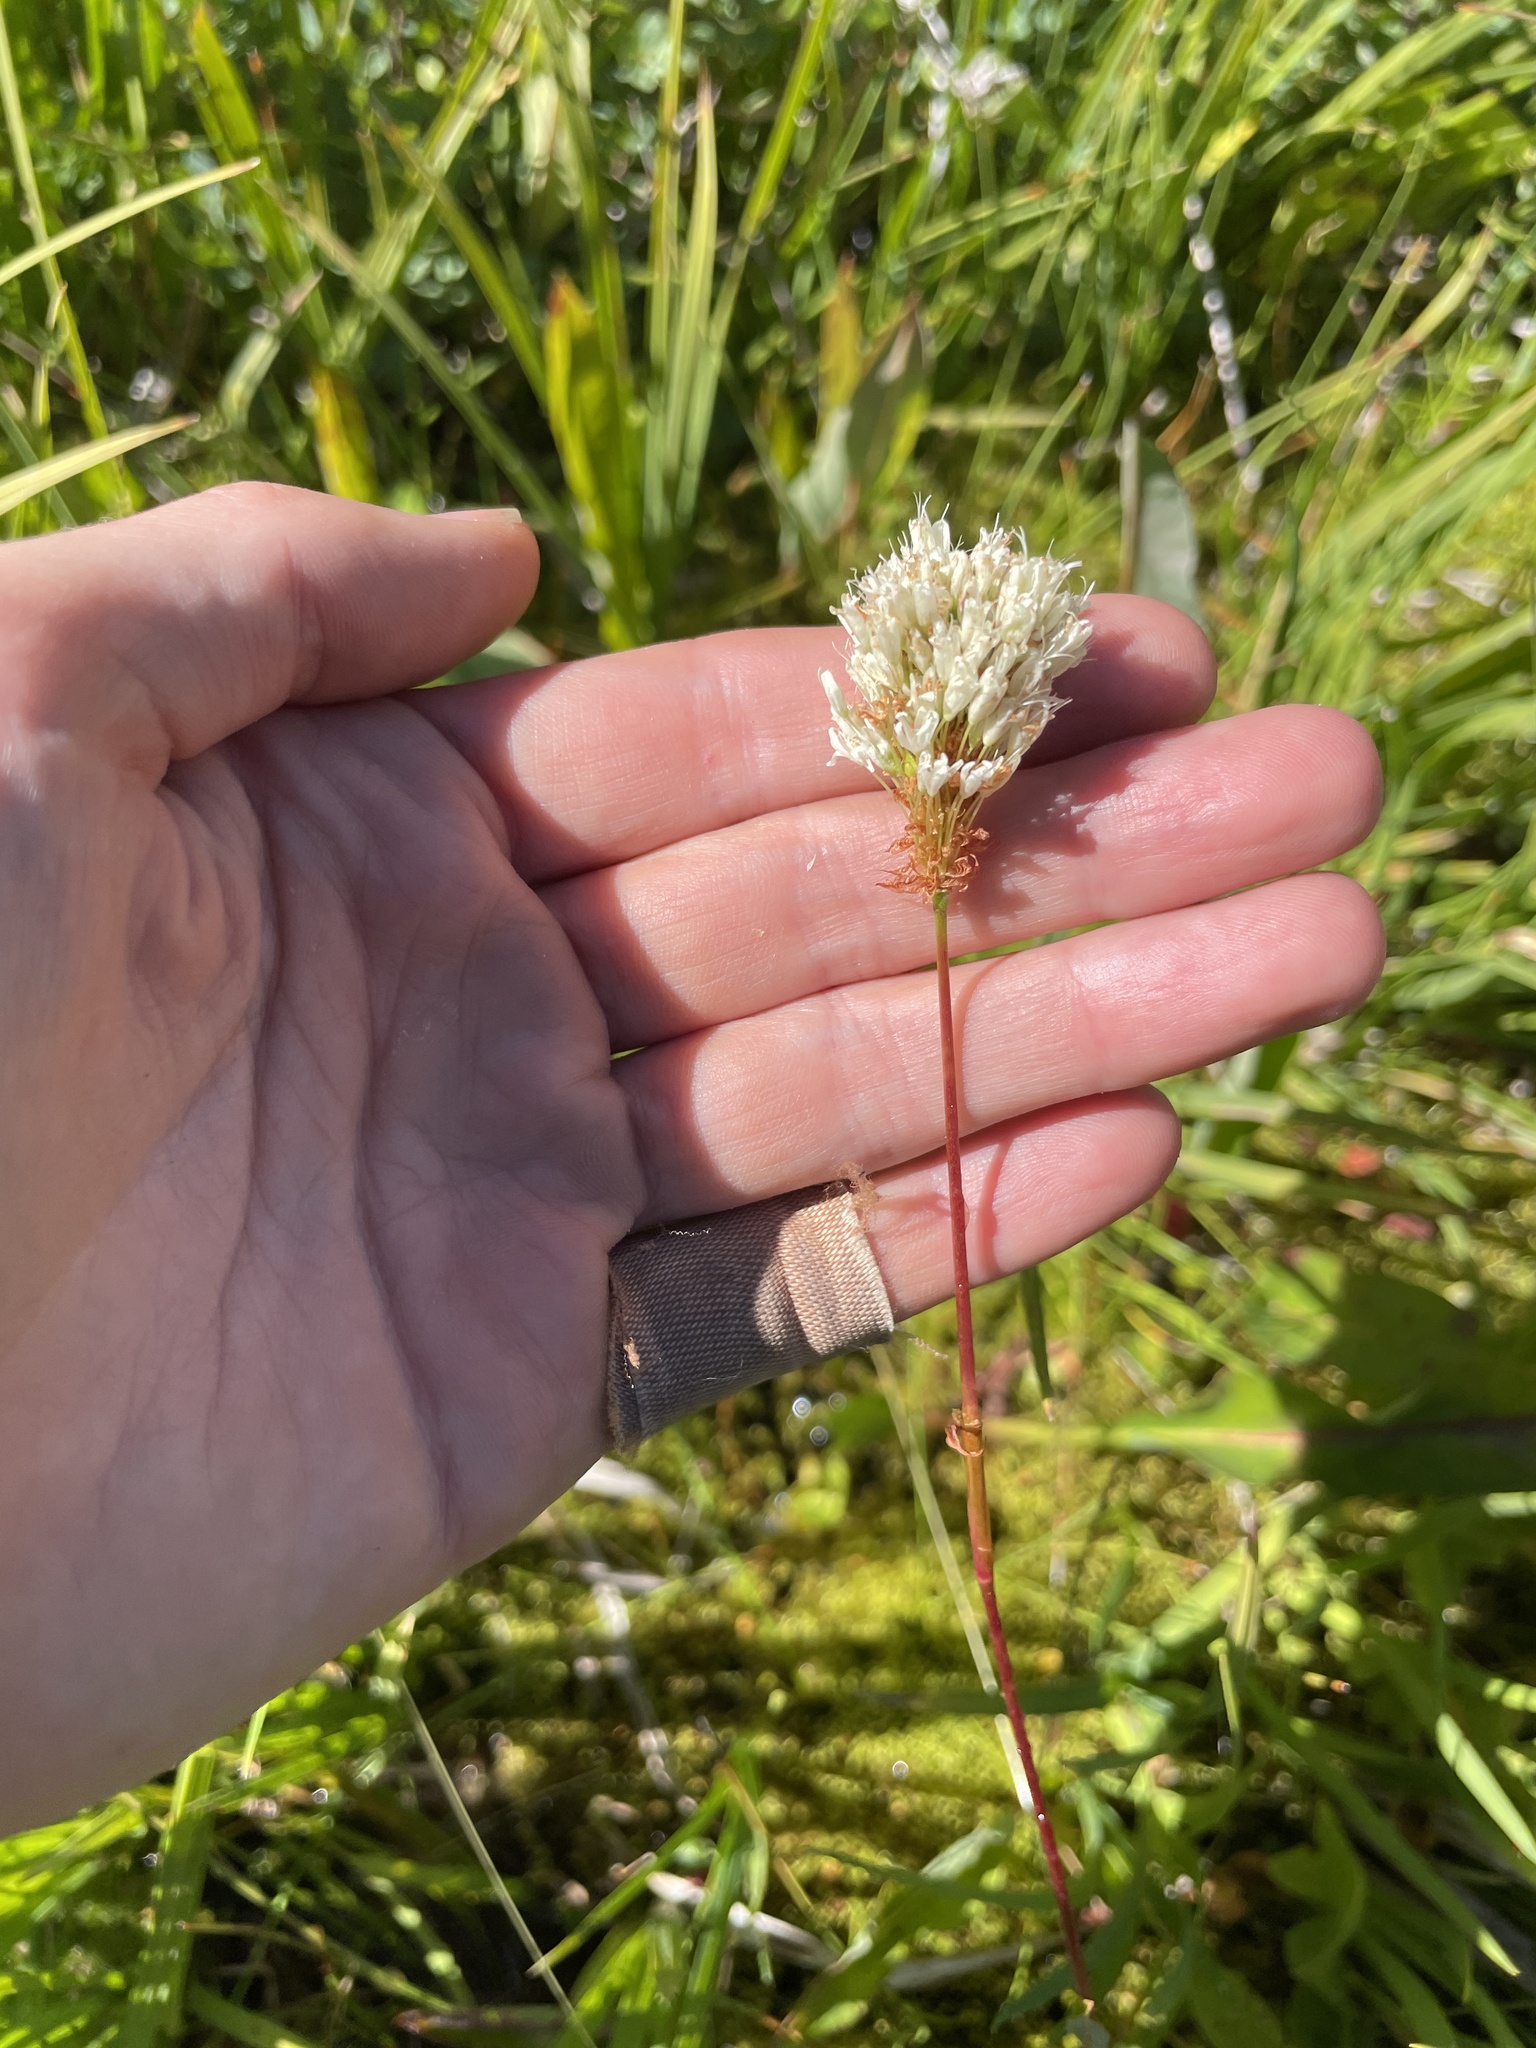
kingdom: Plantae
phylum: Tracheophyta
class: Magnoliopsida
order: Caryophyllales
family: Polygonaceae
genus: Bistorta
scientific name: Bistorta bistortoides
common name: American bistort
